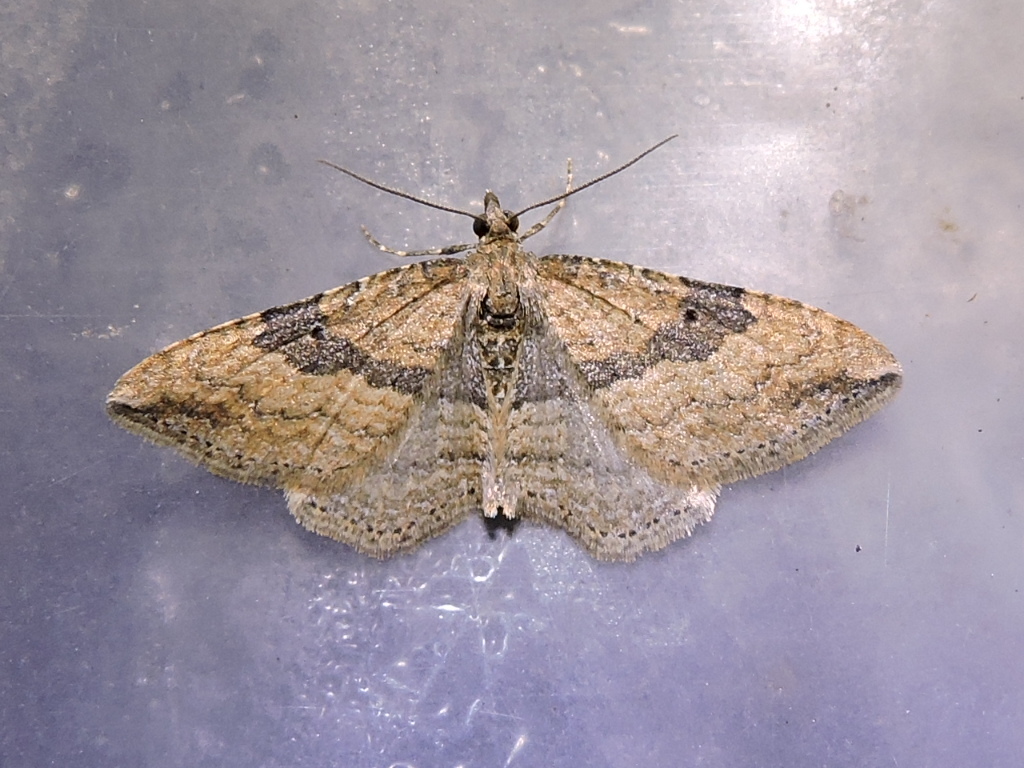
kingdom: Animalia
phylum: Arthropoda
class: Insecta
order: Lepidoptera
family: Geometridae
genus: Orthonama
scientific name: Orthonama obstipata
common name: The gem
